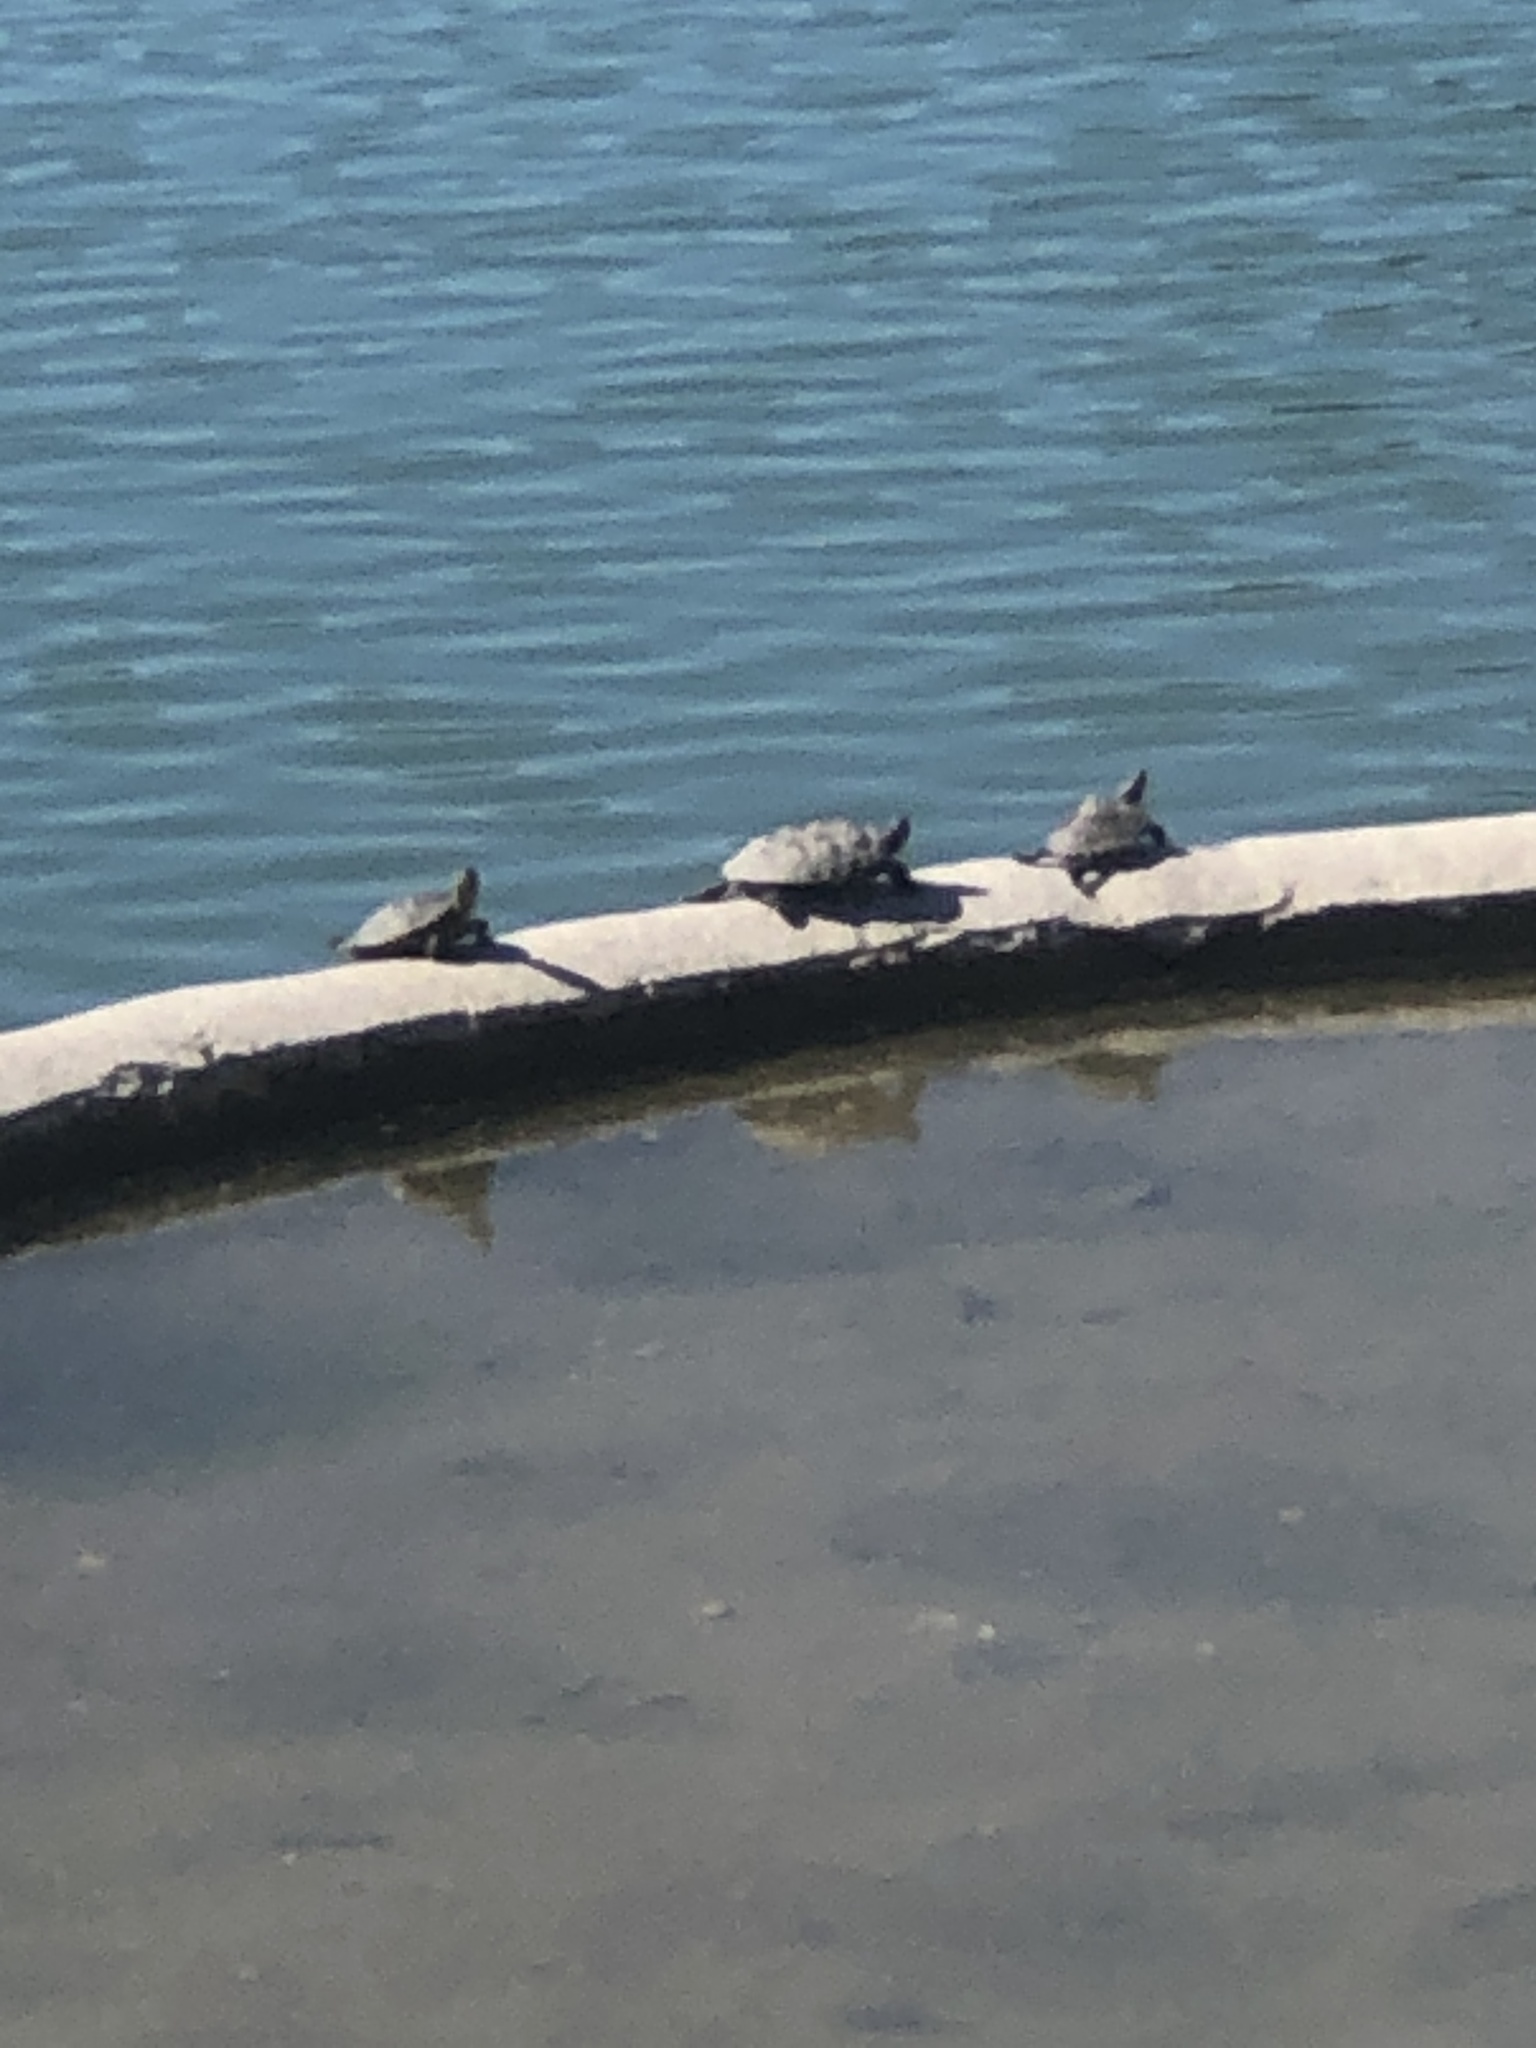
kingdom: Animalia
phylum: Chordata
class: Testudines
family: Emydidae
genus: Trachemys
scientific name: Trachemys scripta
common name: Slider
